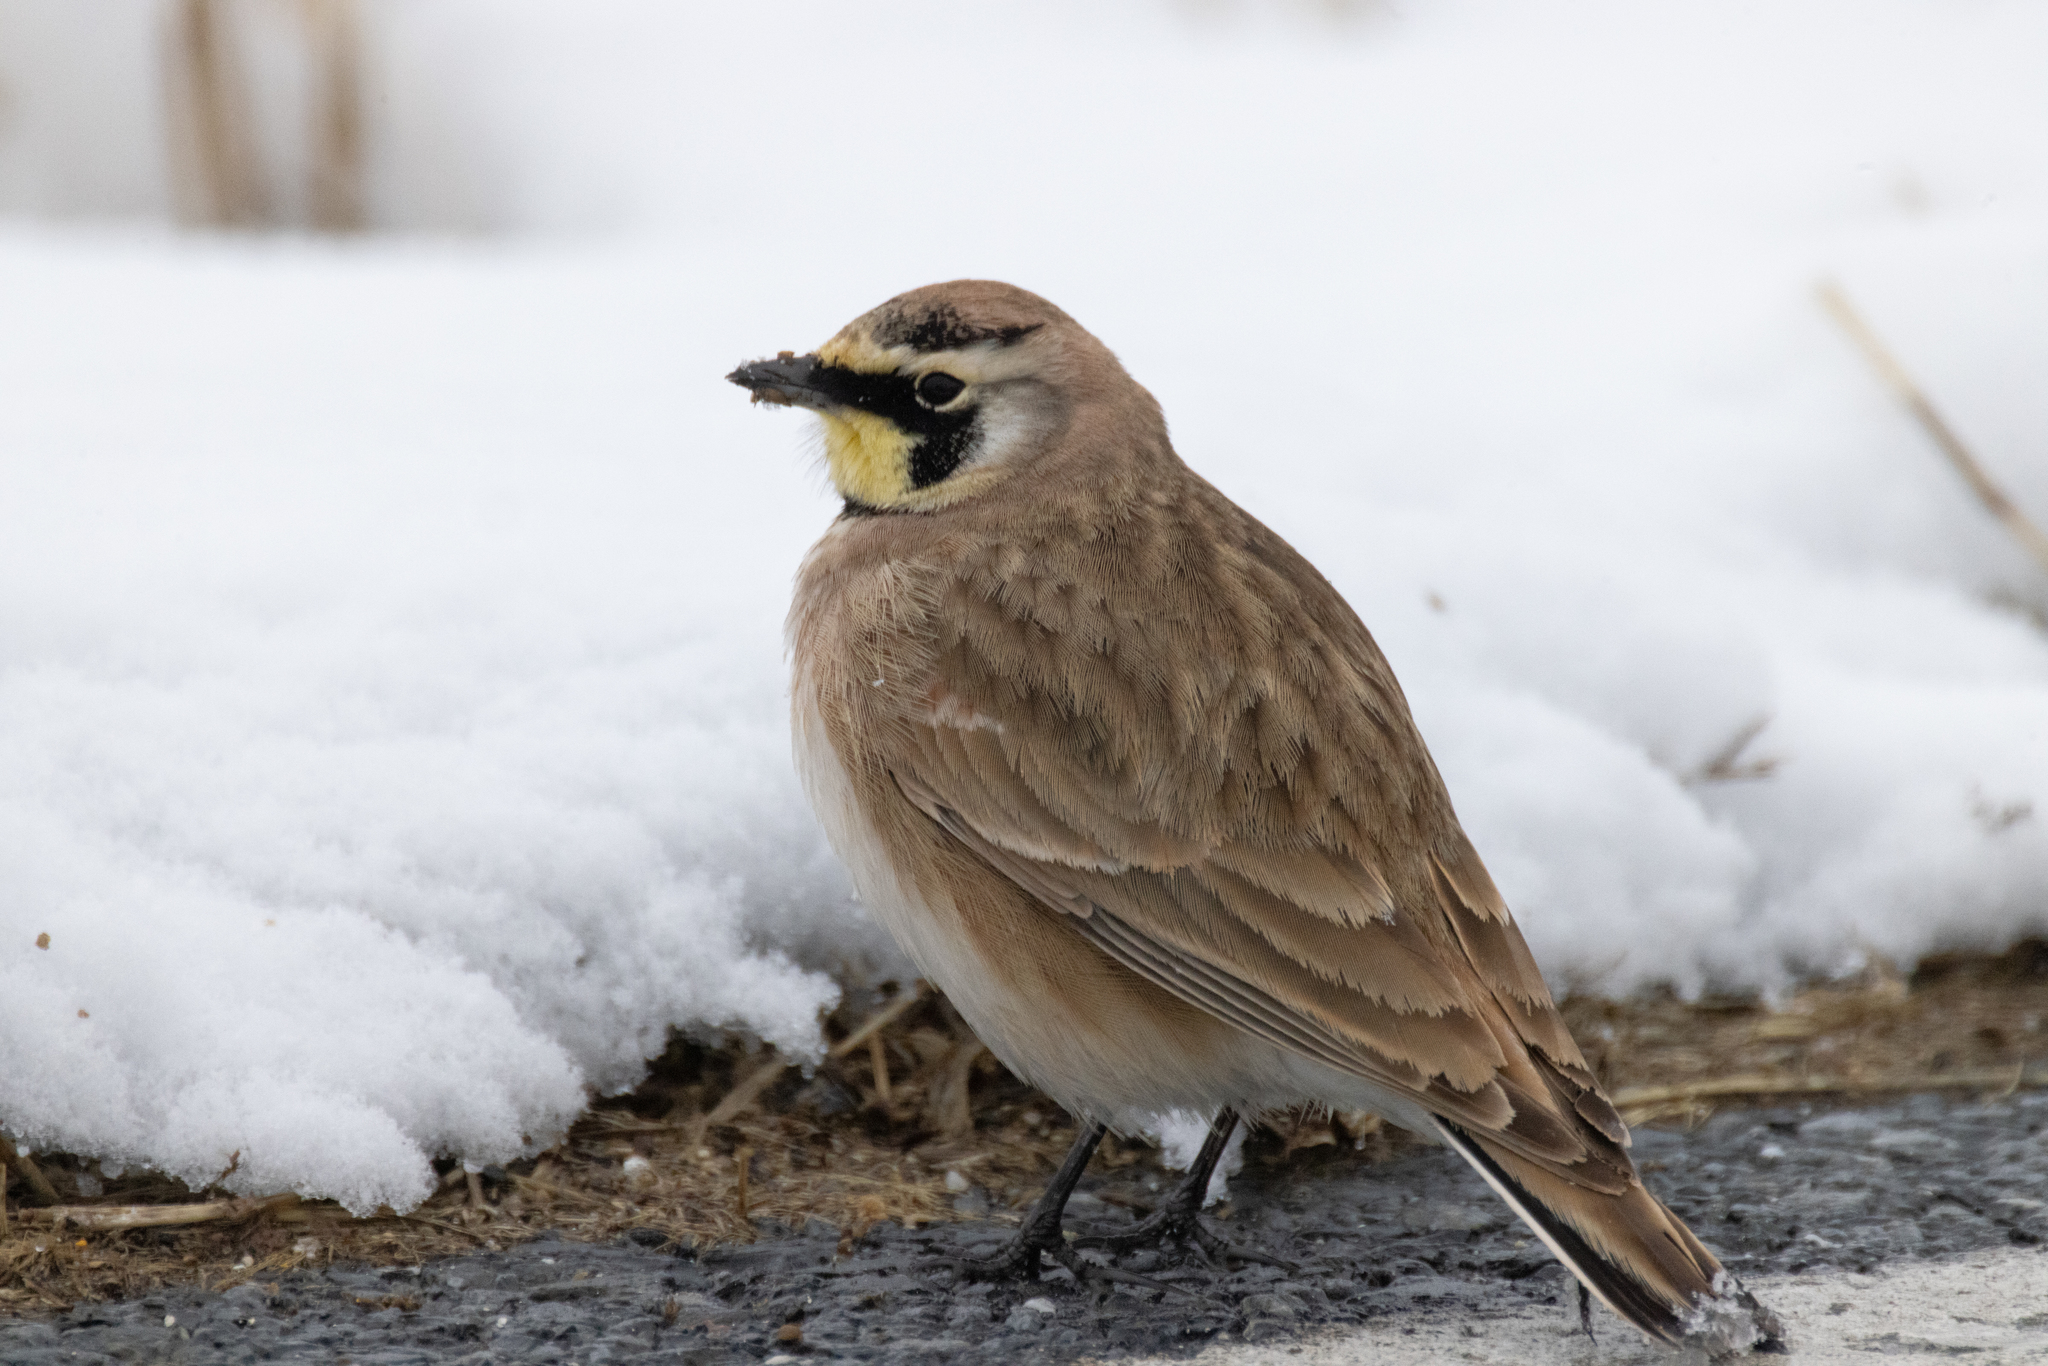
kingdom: Animalia
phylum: Chordata
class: Aves
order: Passeriformes
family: Alaudidae
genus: Eremophila
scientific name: Eremophila alpestris
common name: Horned lark
